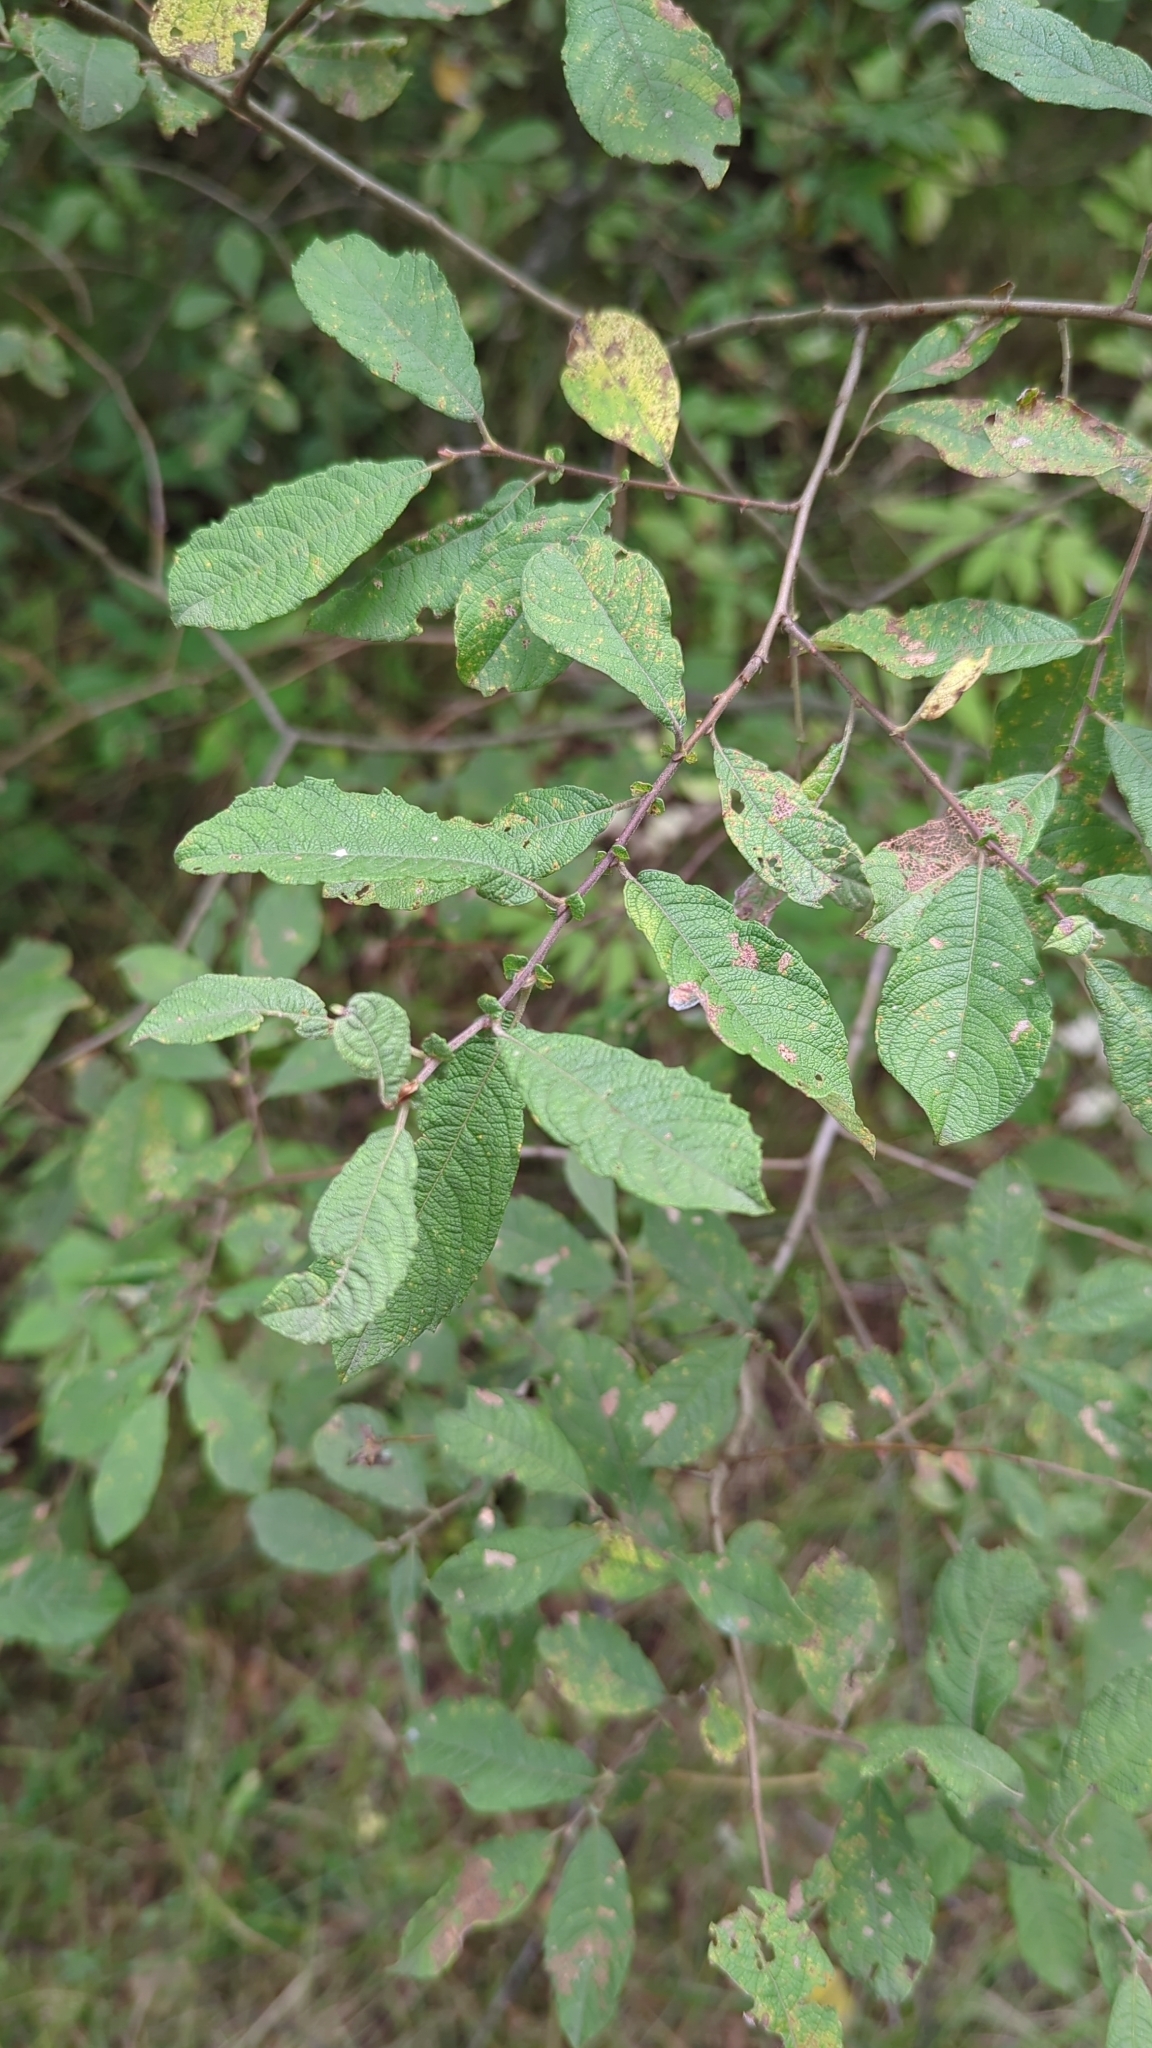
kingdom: Plantae
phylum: Tracheophyta
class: Magnoliopsida
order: Malpighiales
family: Salicaceae
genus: Salix
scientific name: Salix cinerea
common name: Common sallow
